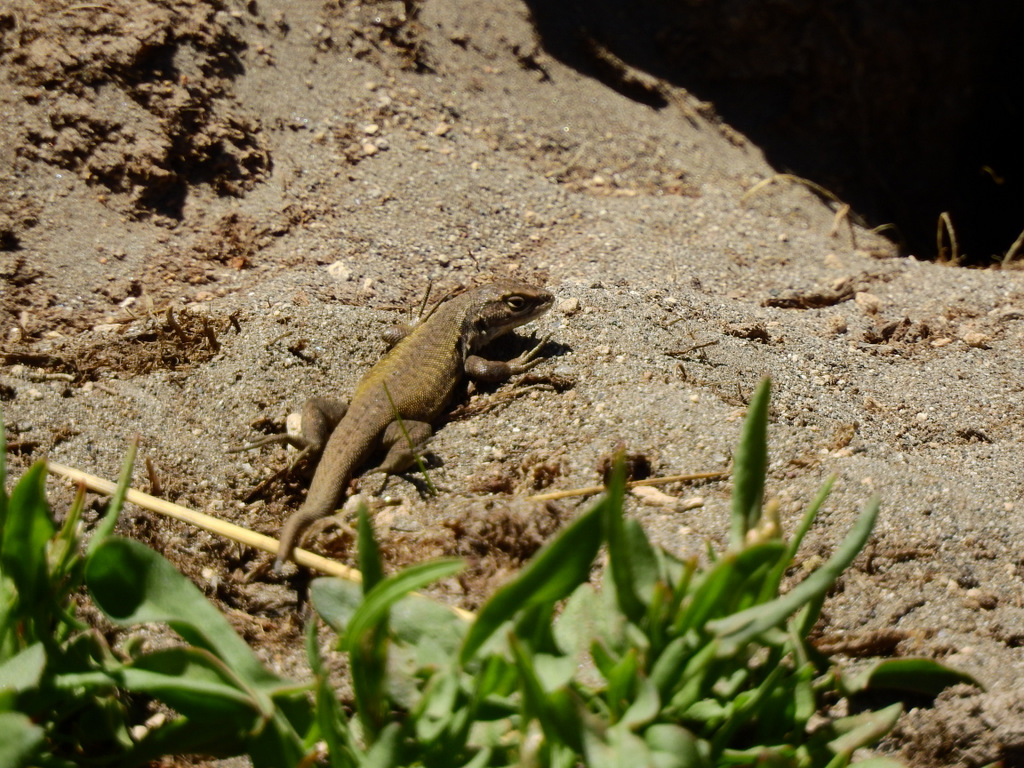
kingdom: Animalia
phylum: Chordata
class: Squamata
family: Liolaemidae
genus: Liolaemus
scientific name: Liolaemus smaug
